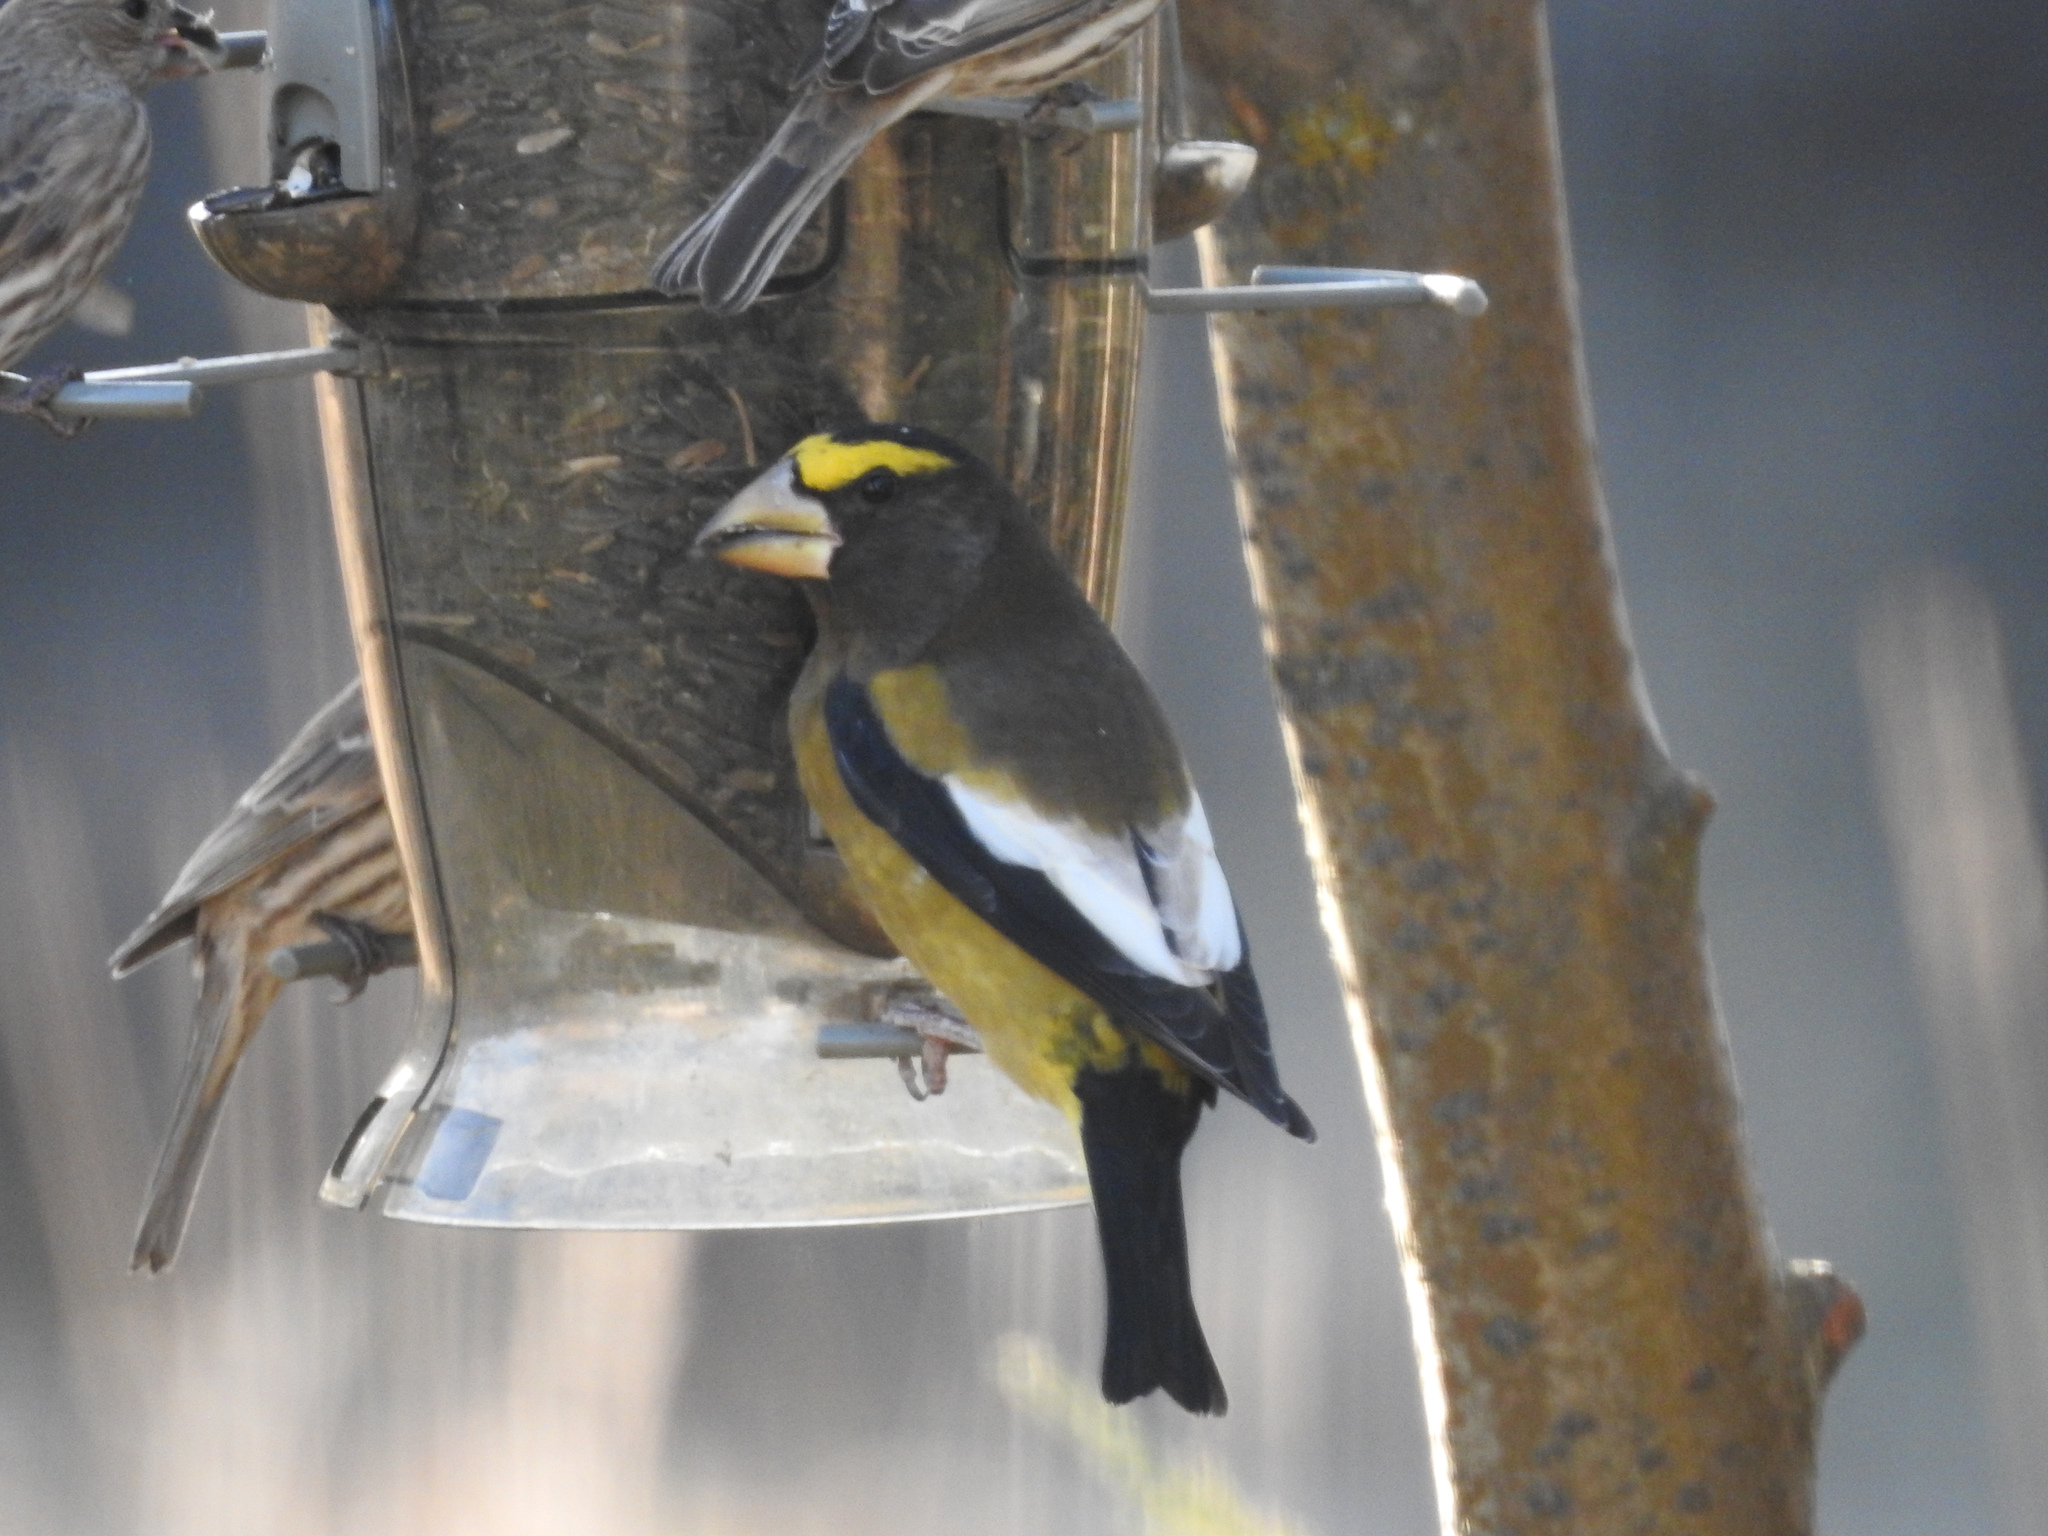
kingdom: Animalia
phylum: Chordata
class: Aves
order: Passeriformes
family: Fringillidae
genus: Hesperiphona
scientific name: Hesperiphona vespertina
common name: Evening grosbeak
